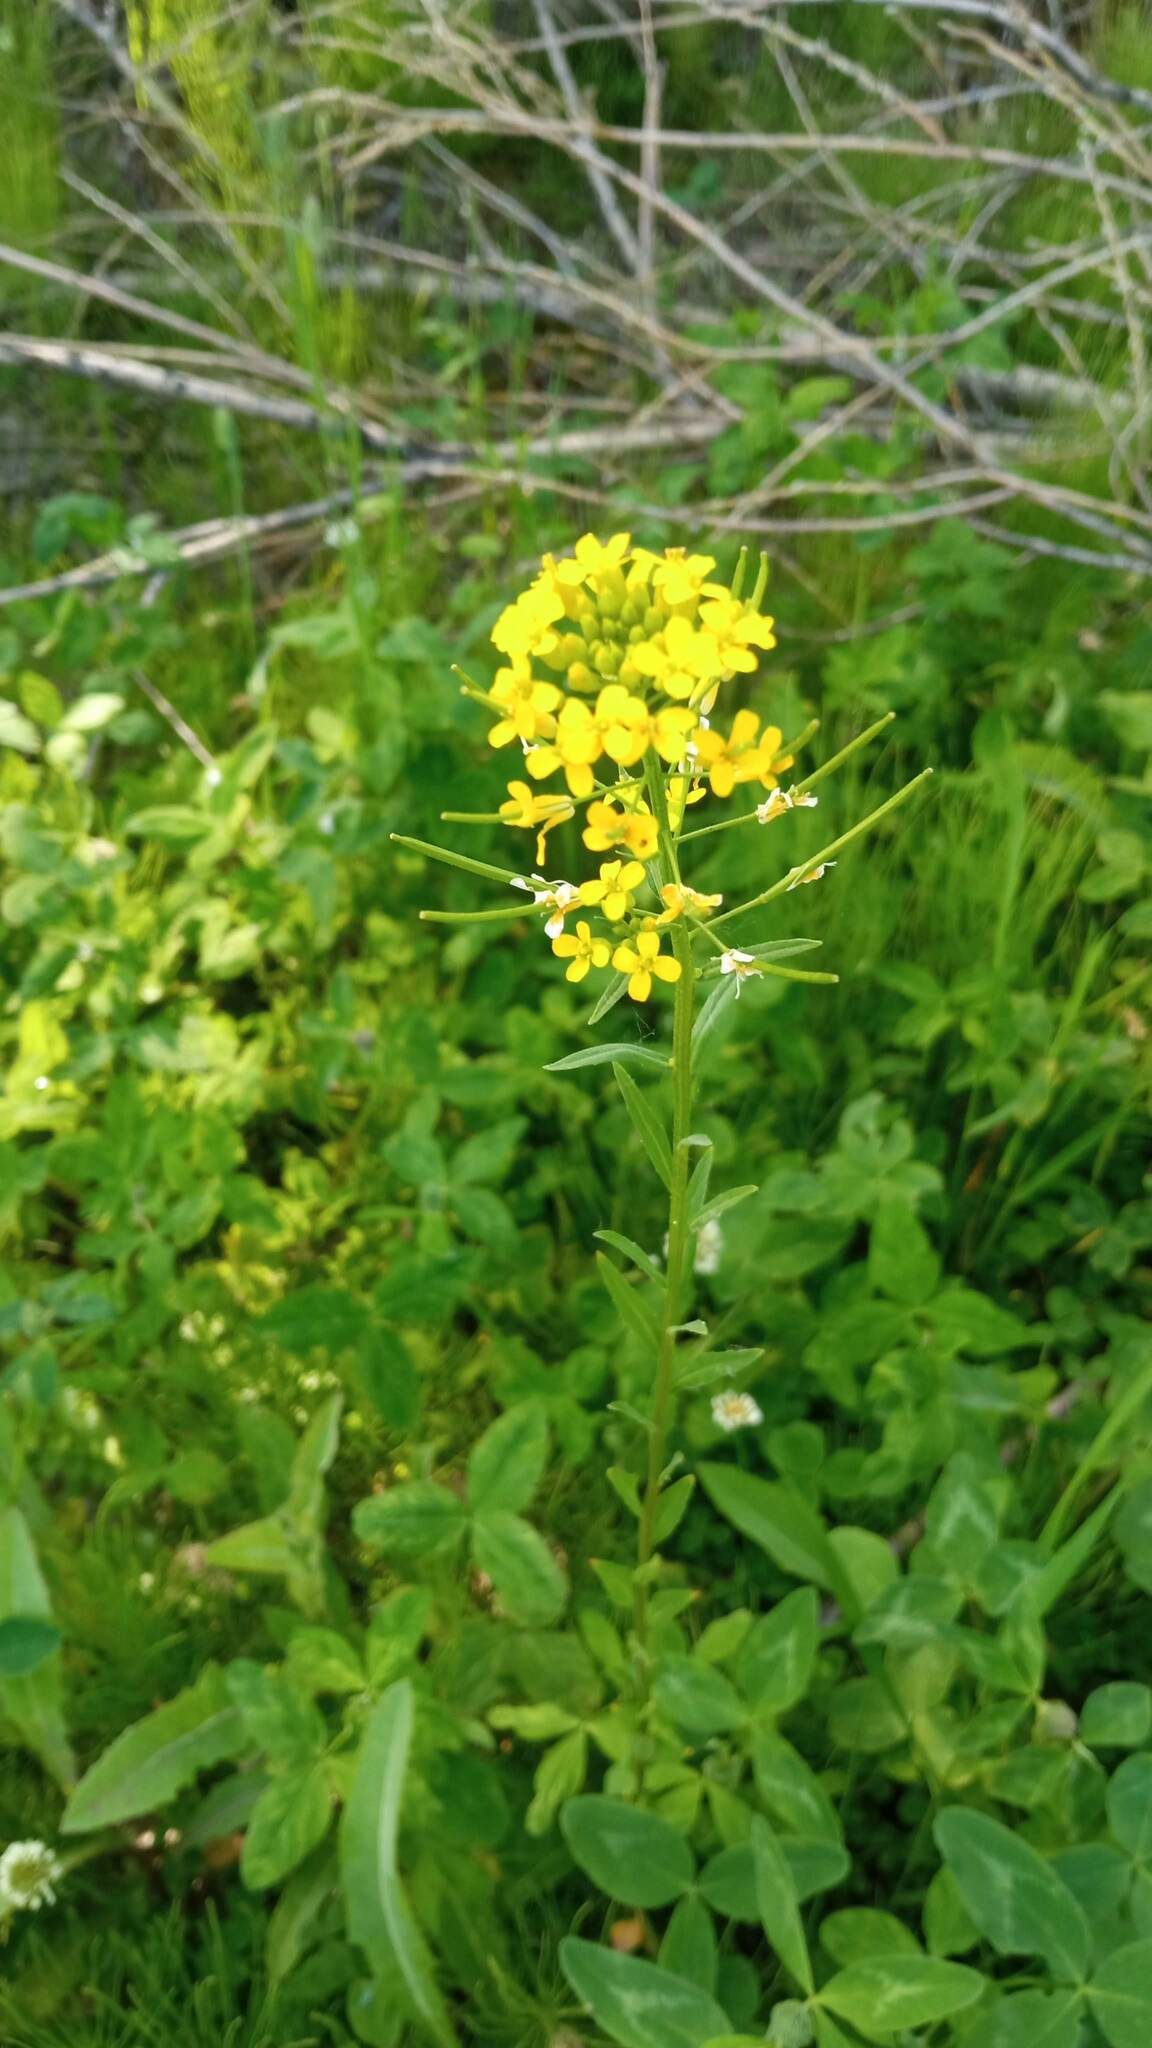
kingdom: Plantae
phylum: Tracheophyta
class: Magnoliopsida
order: Brassicales
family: Brassicaceae
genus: Erysimum
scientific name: Erysimum cheiranthoides
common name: Treacle mustard
